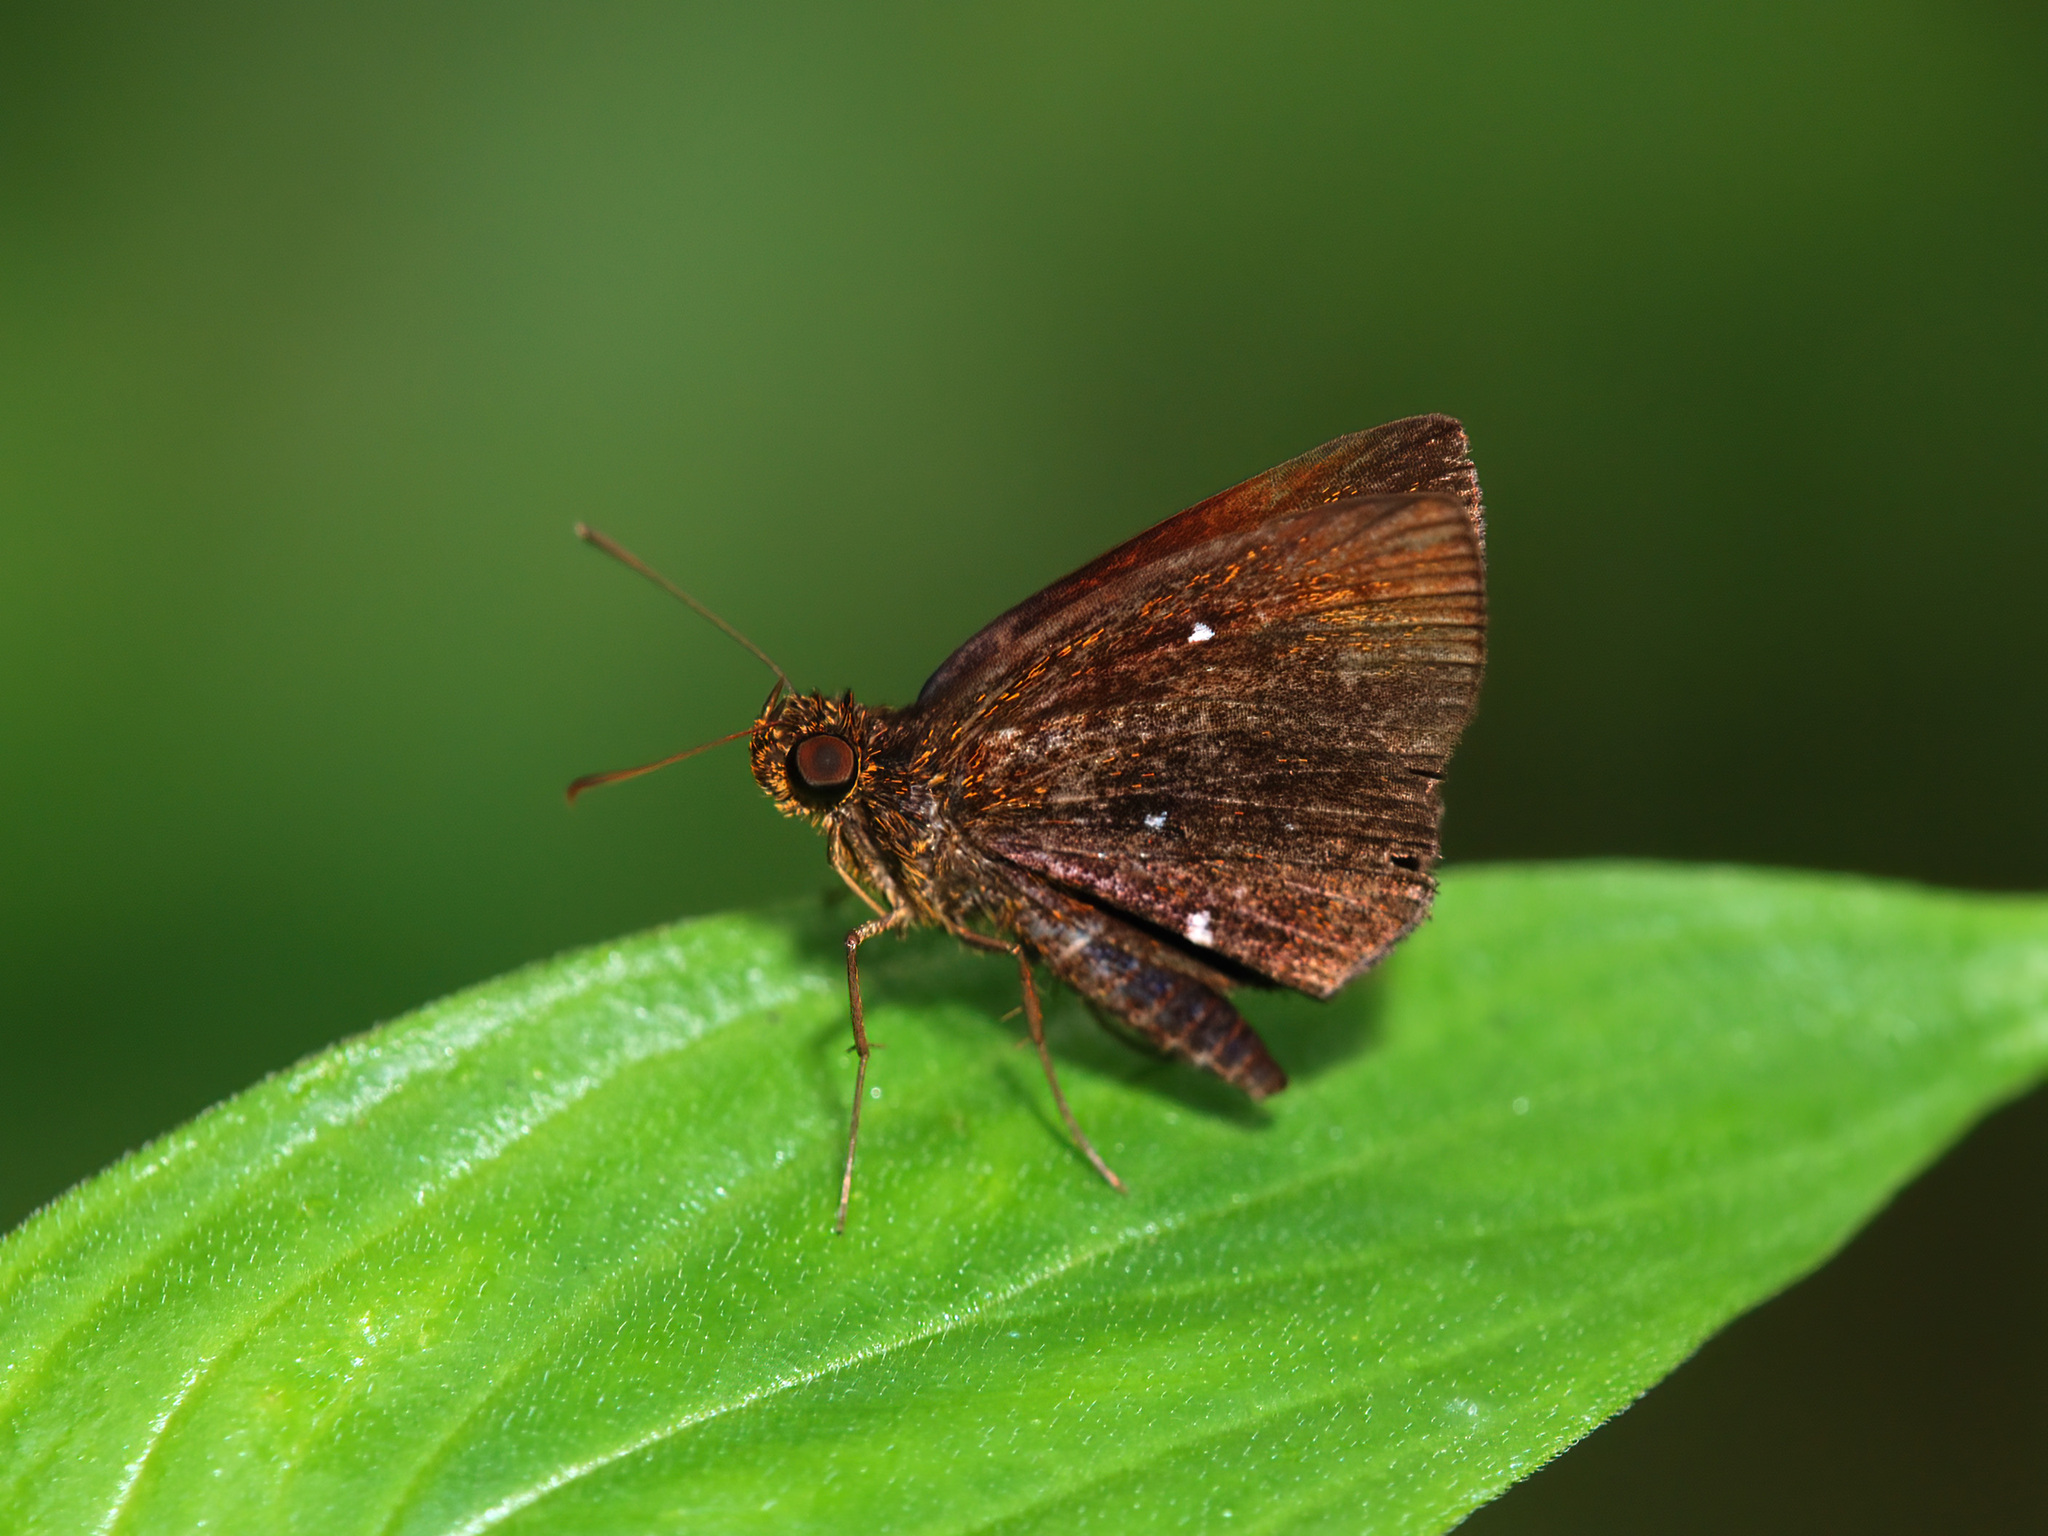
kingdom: Animalia
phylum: Arthropoda
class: Insecta
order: Lepidoptera
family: Hesperiidae
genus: Iambrix
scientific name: Iambrix stellifer
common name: Starry bob
